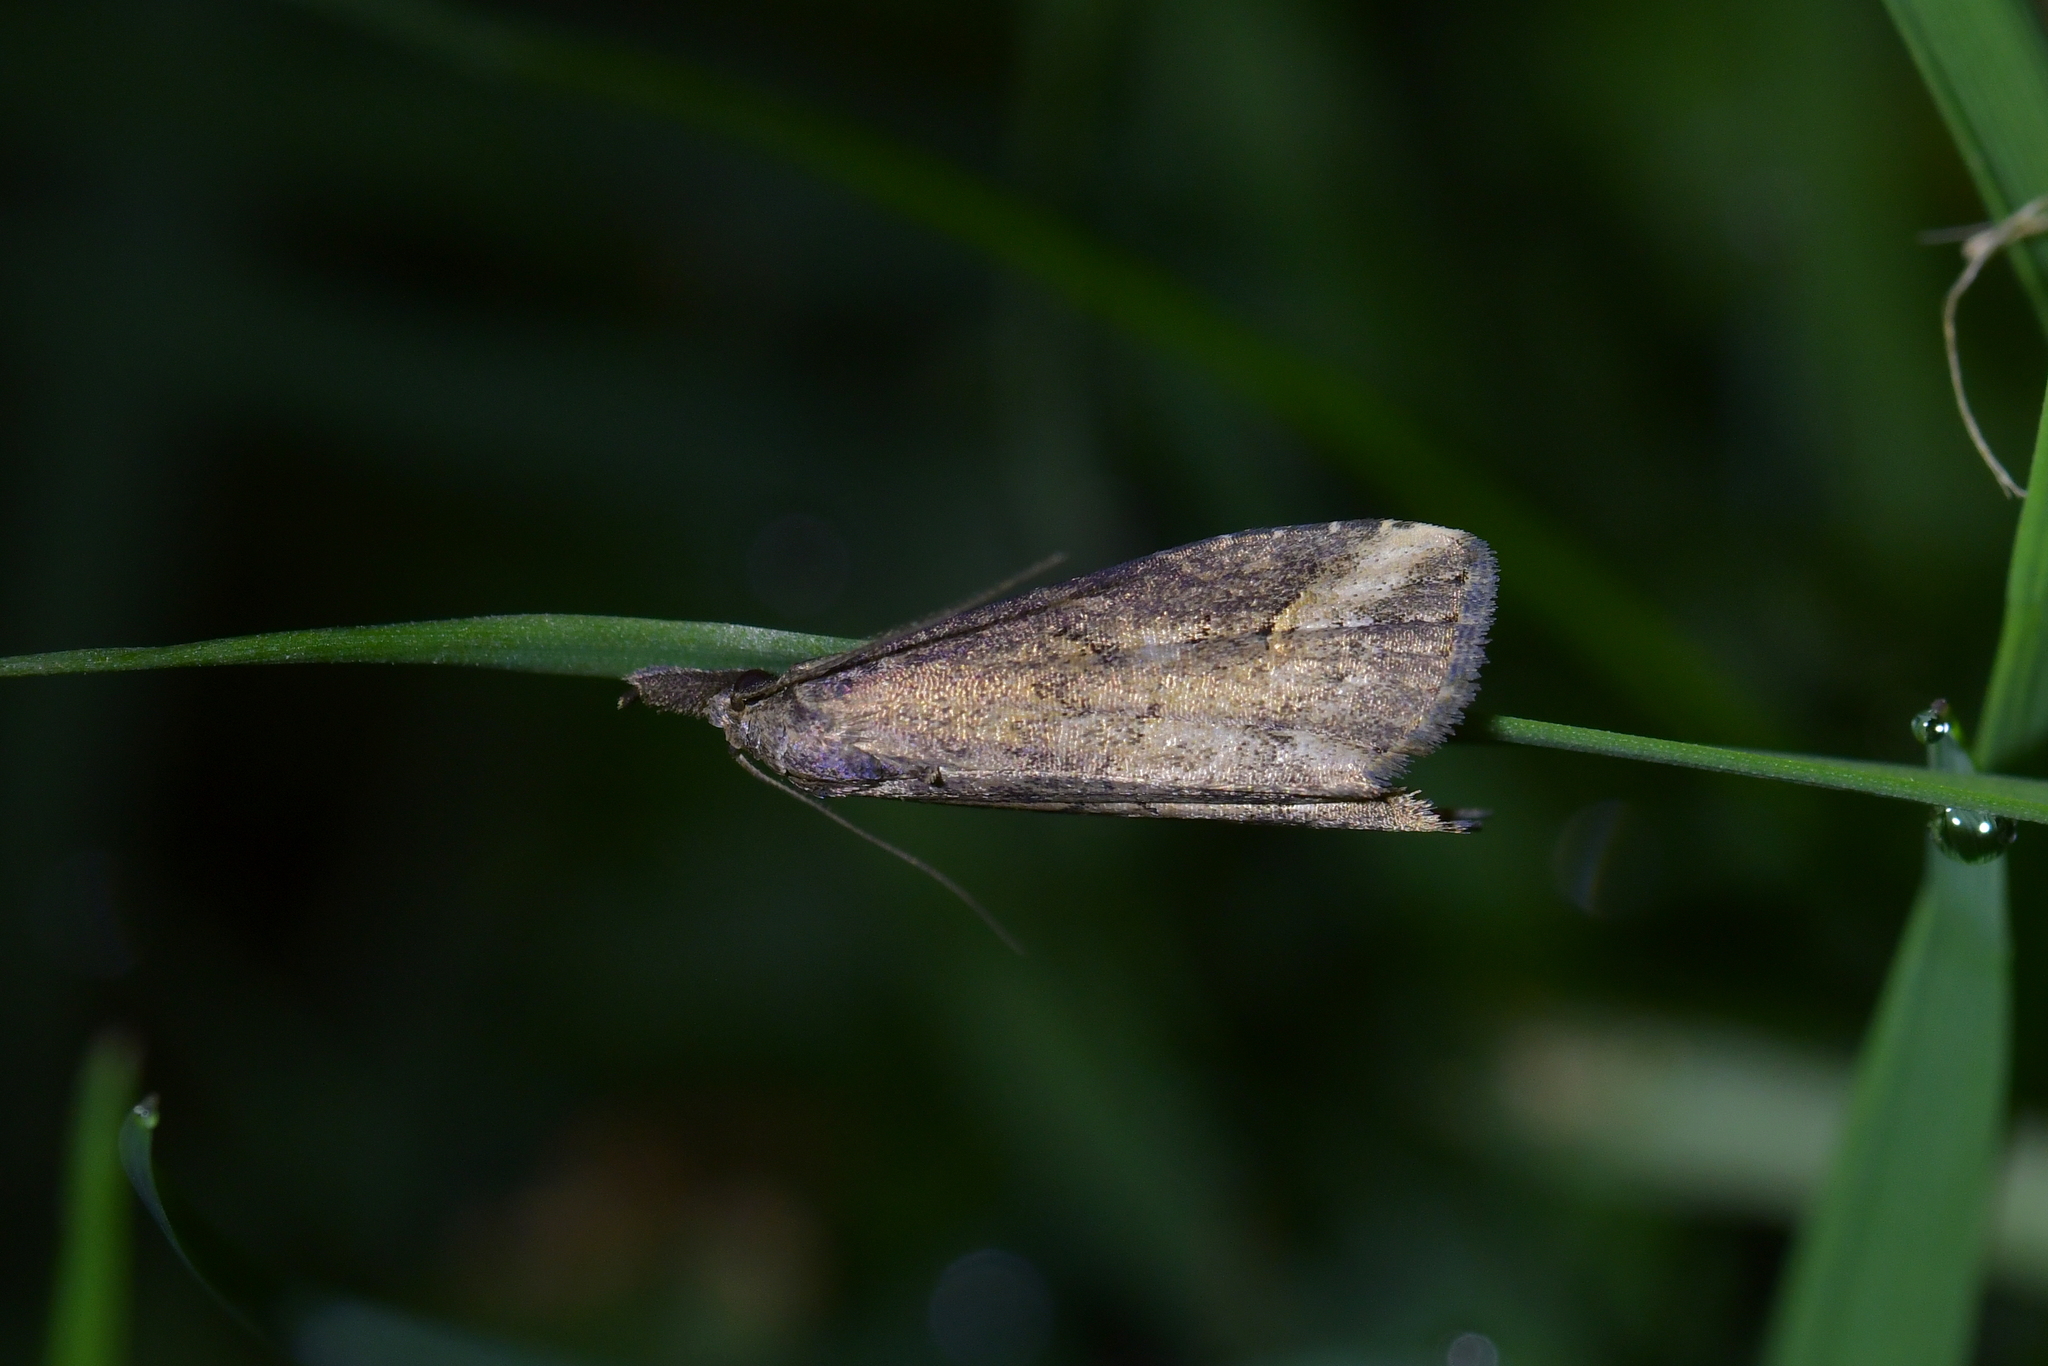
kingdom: Animalia
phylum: Arthropoda
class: Insecta
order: Lepidoptera
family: Erebidae
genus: Schrankia
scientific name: Schrankia costaestrigalis
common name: Pinion-streaked snout
